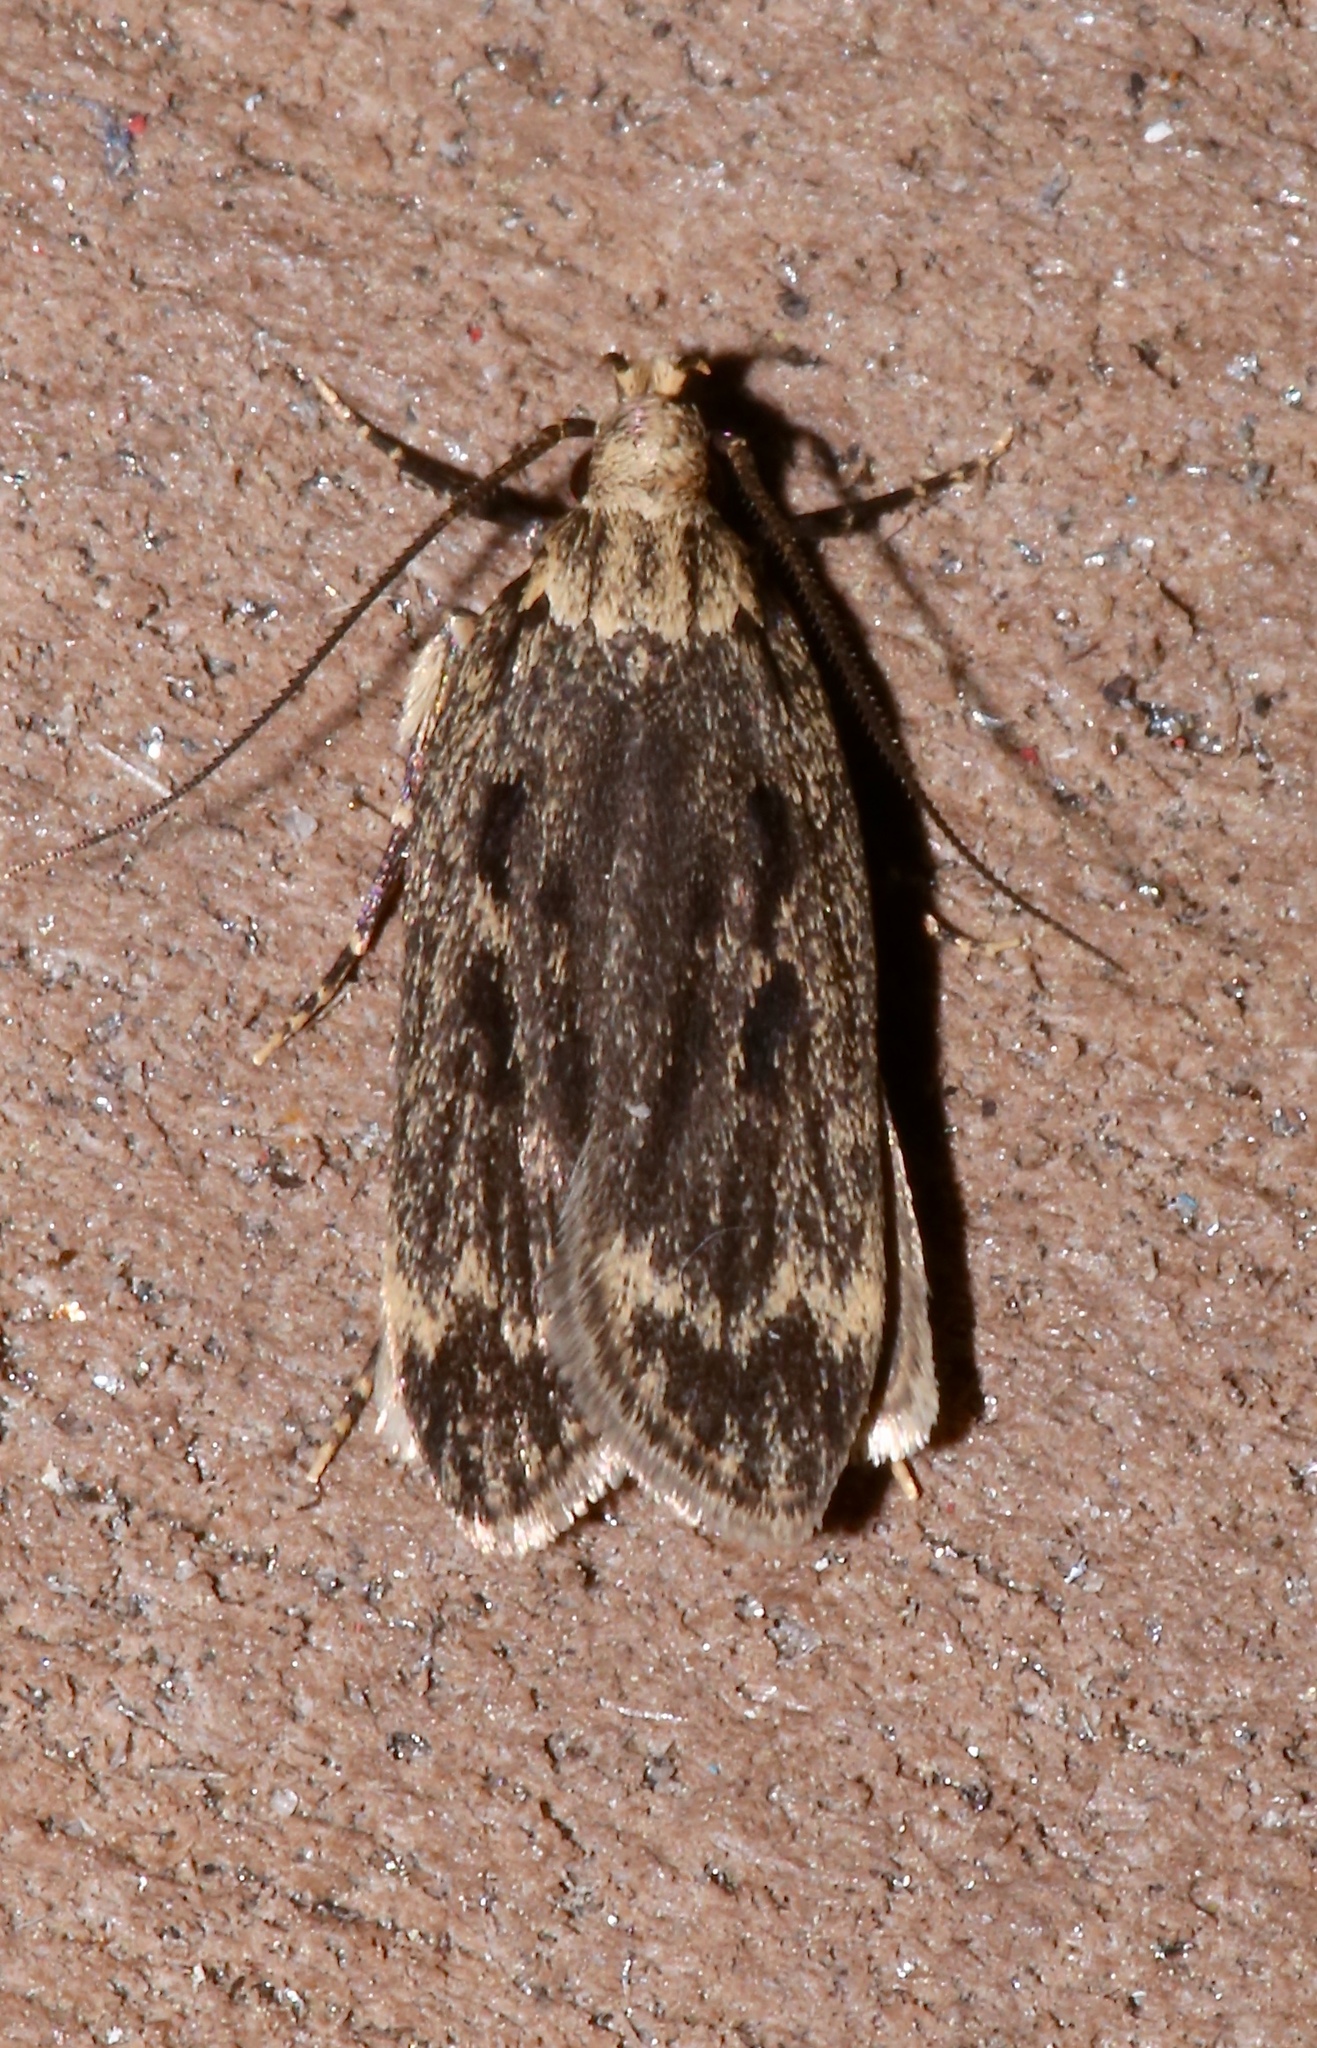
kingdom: Animalia
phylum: Arthropoda
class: Insecta
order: Lepidoptera
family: Lecithoceridae
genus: Martyringa
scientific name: Martyringa xeraula
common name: Himalayan grain moth
